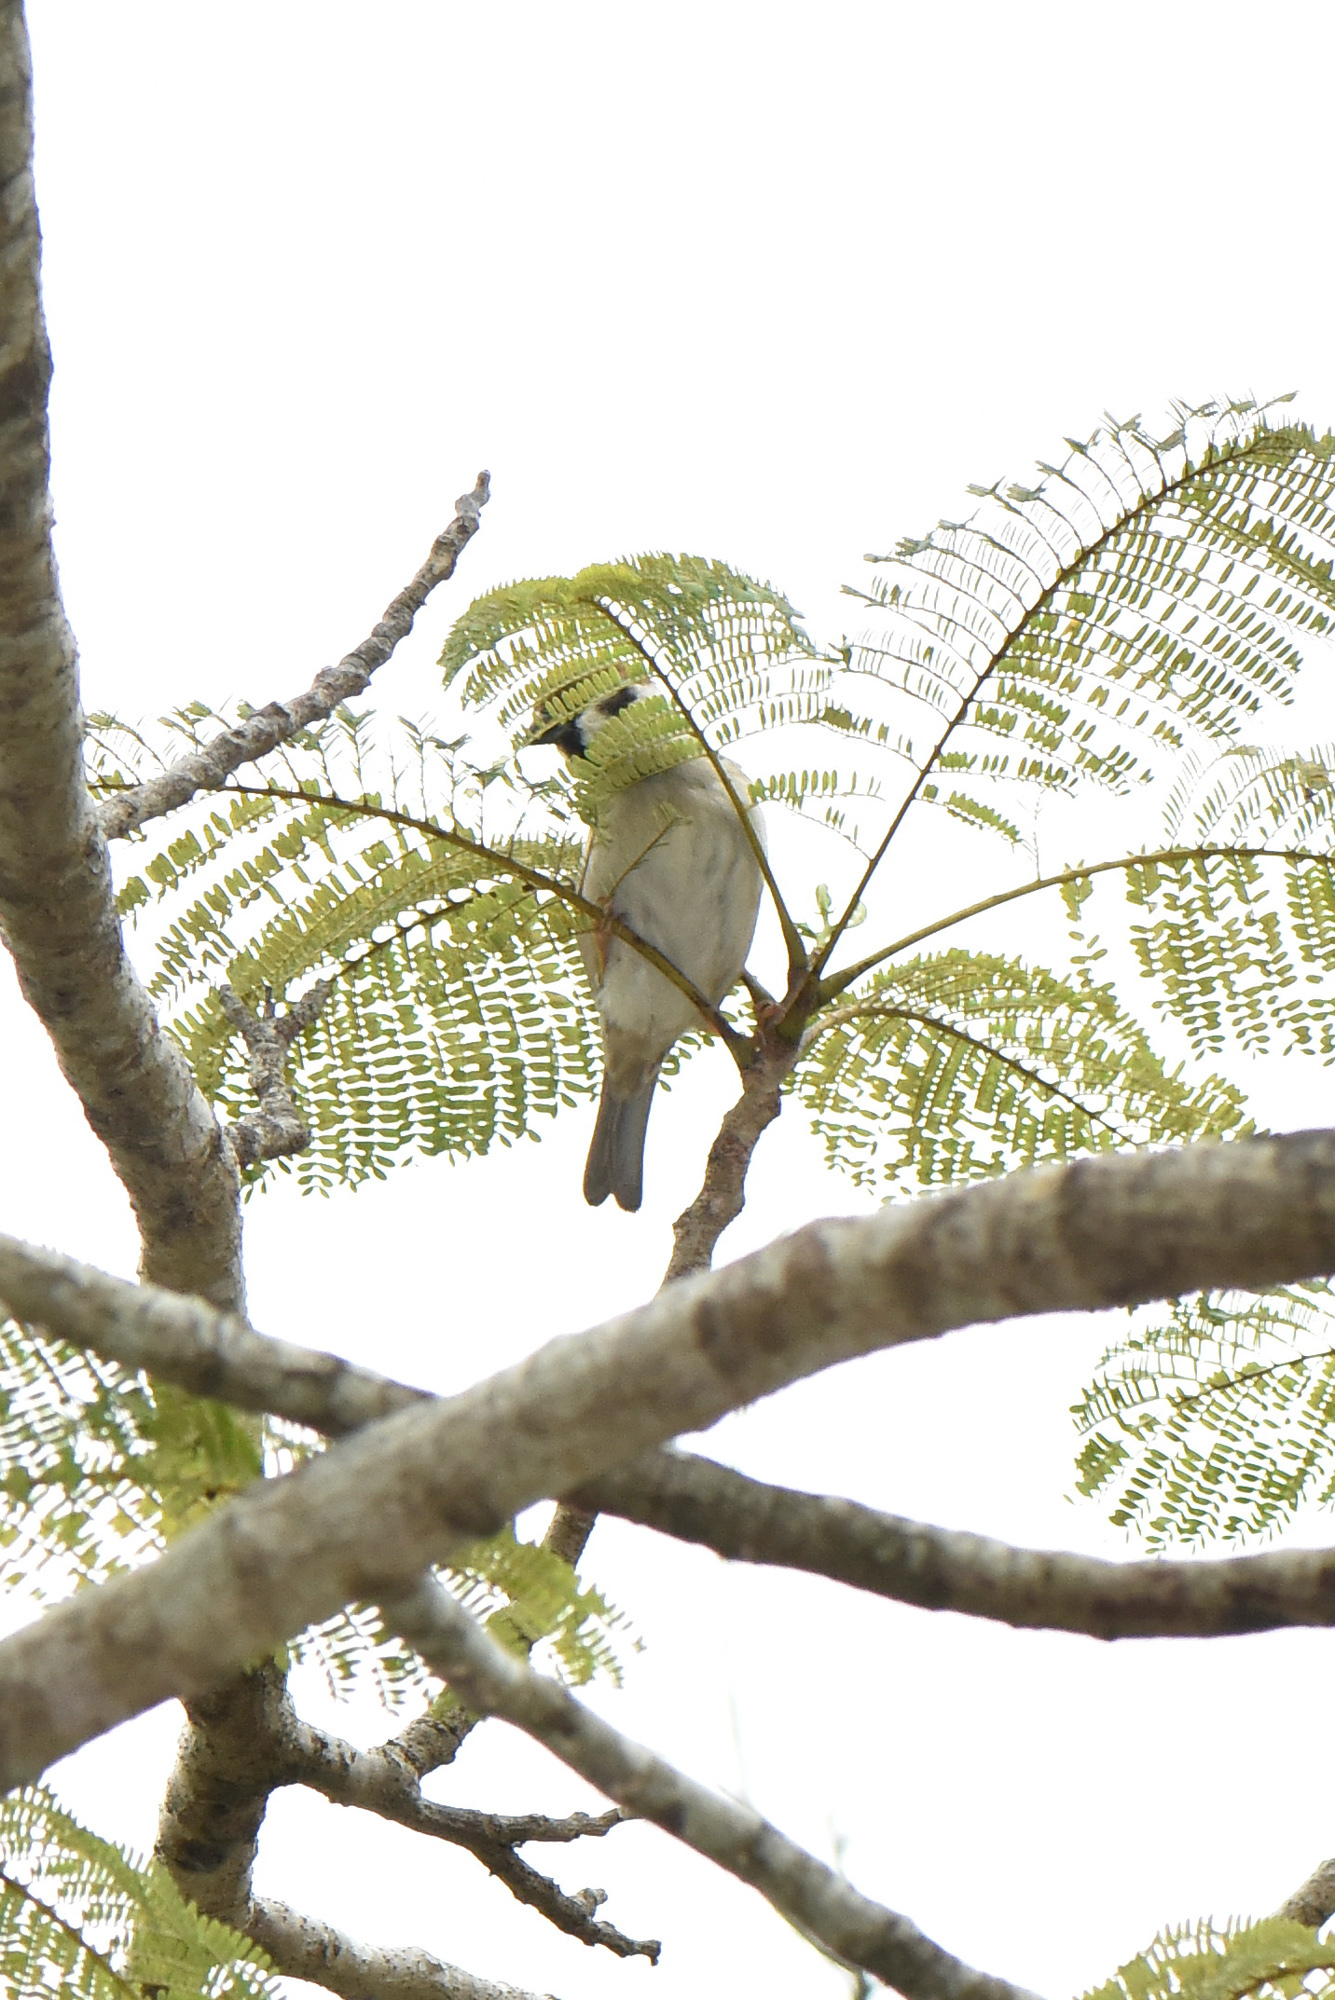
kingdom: Animalia
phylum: Chordata
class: Aves
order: Passeriformes
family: Passeridae
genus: Passer
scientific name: Passer montanus
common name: Eurasian tree sparrow
